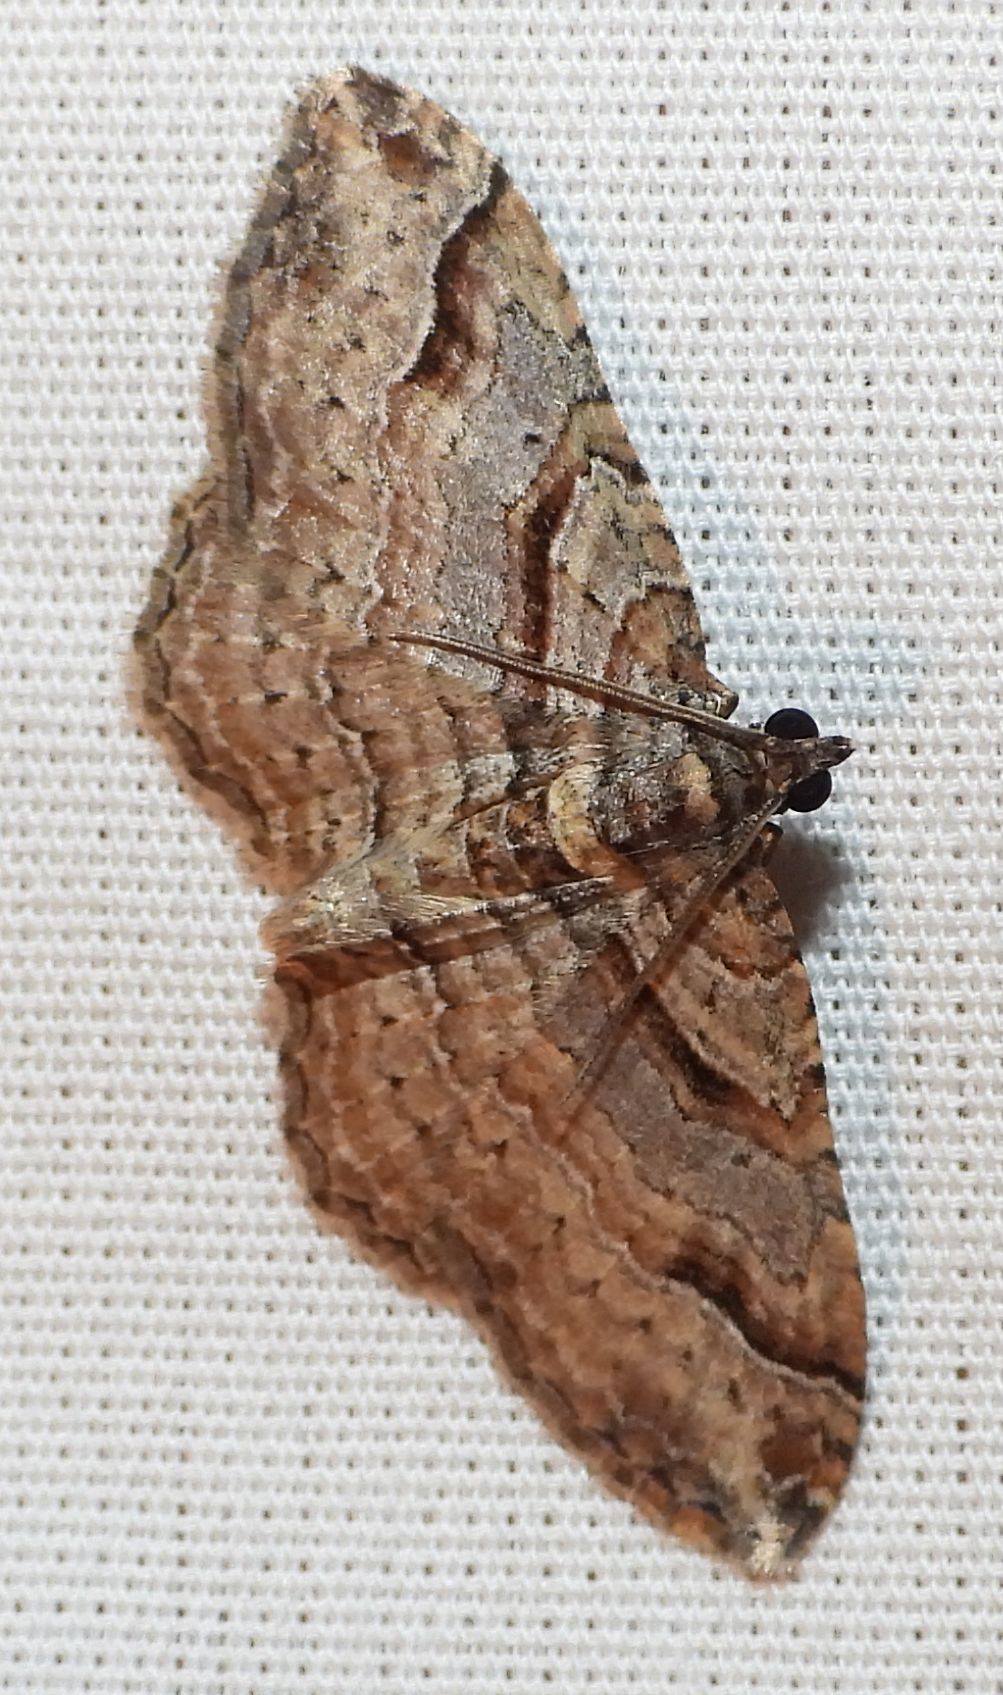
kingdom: Animalia
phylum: Arthropoda
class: Insecta
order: Lepidoptera
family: Geometridae
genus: Costaconvexa
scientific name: Costaconvexa centrostrigaria
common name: Bent-line carpet
